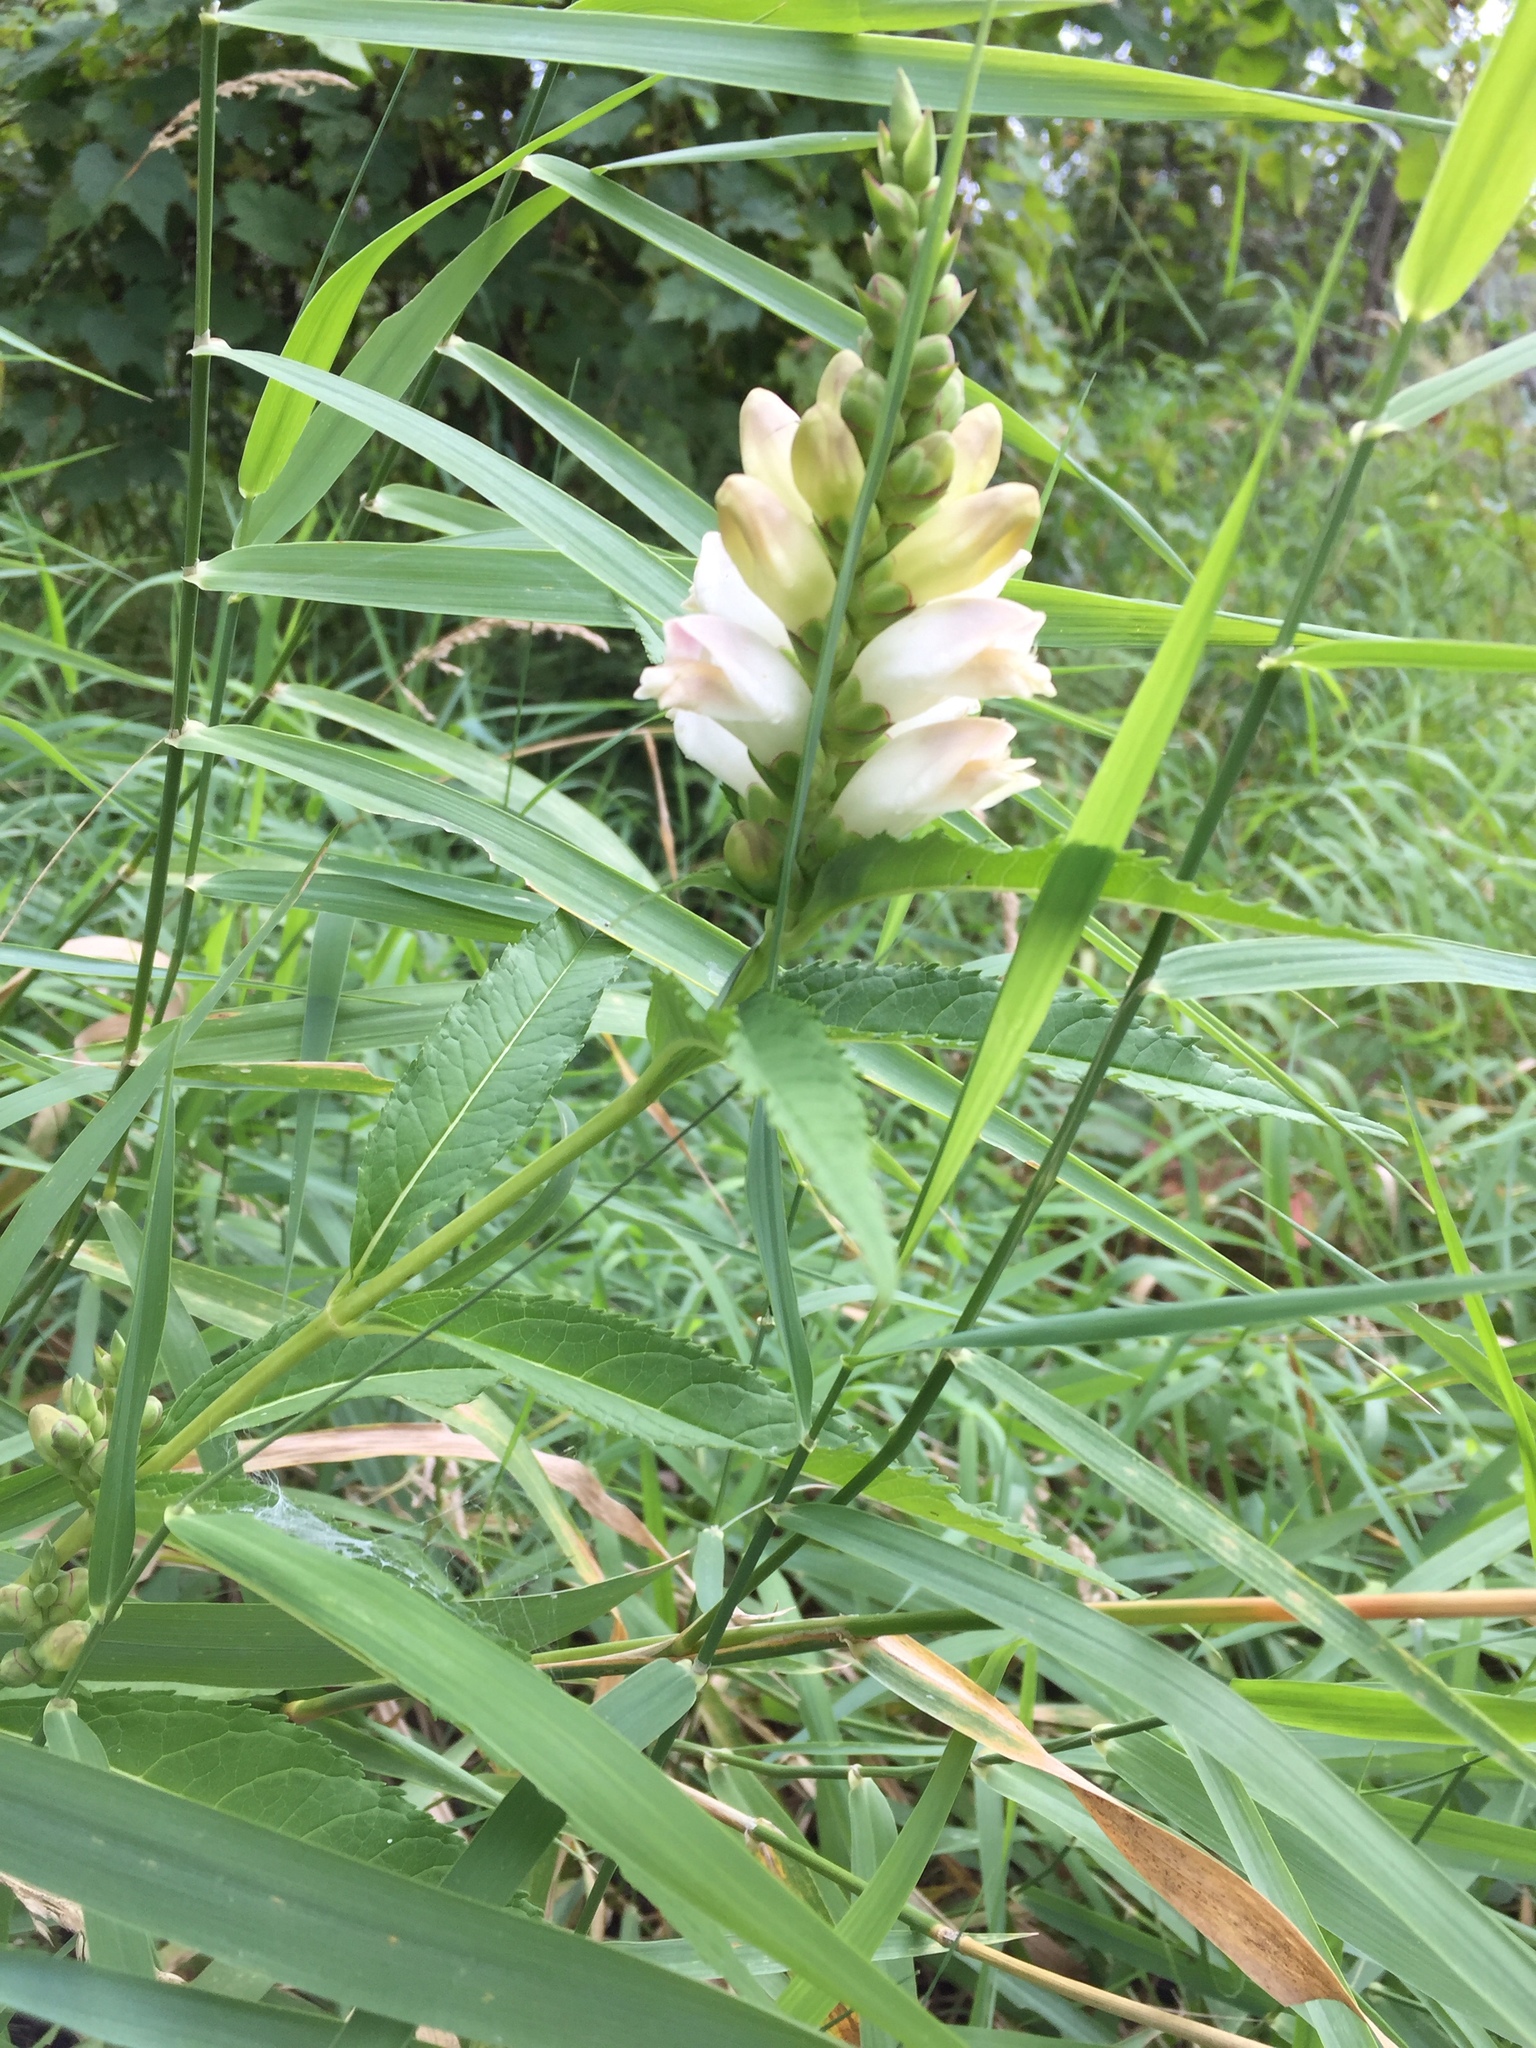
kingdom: Plantae
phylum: Tracheophyta
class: Magnoliopsida
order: Lamiales
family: Plantaginaceae
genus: Chelone
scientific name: Chelone glabra
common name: Snakehead
